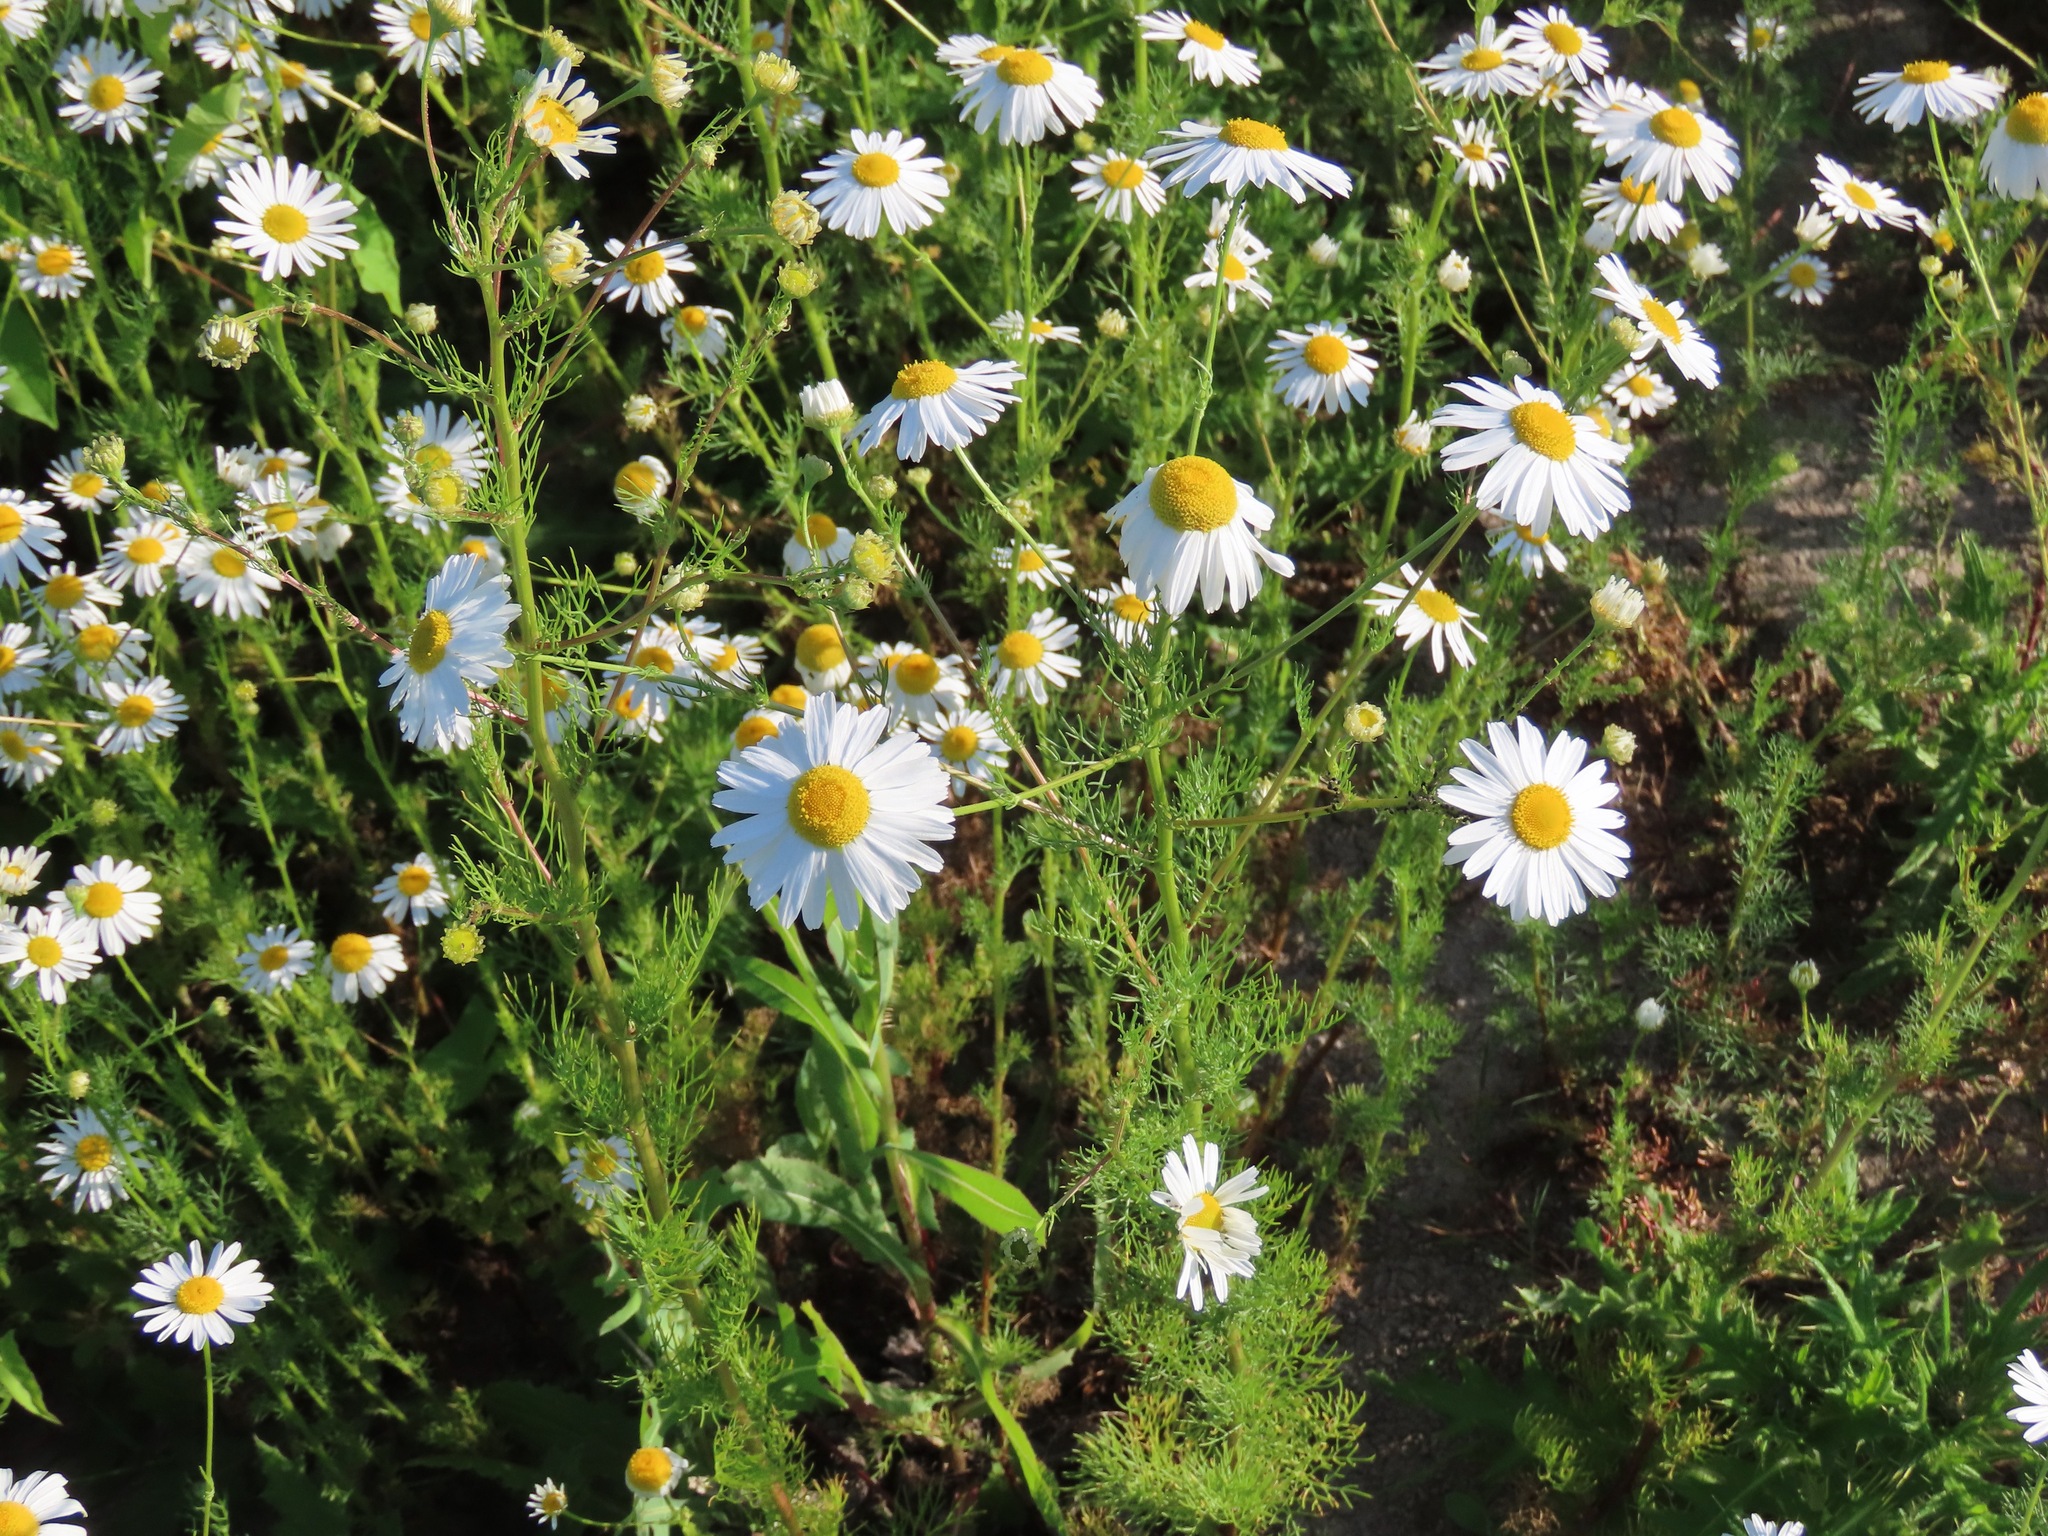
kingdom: Plantae
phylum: Tracheophyta
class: Magnoliopsida
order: Asterales
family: Asteraceae
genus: Tripleurospermum
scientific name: Tripleurospermum inodorum
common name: Scentless mayweed
